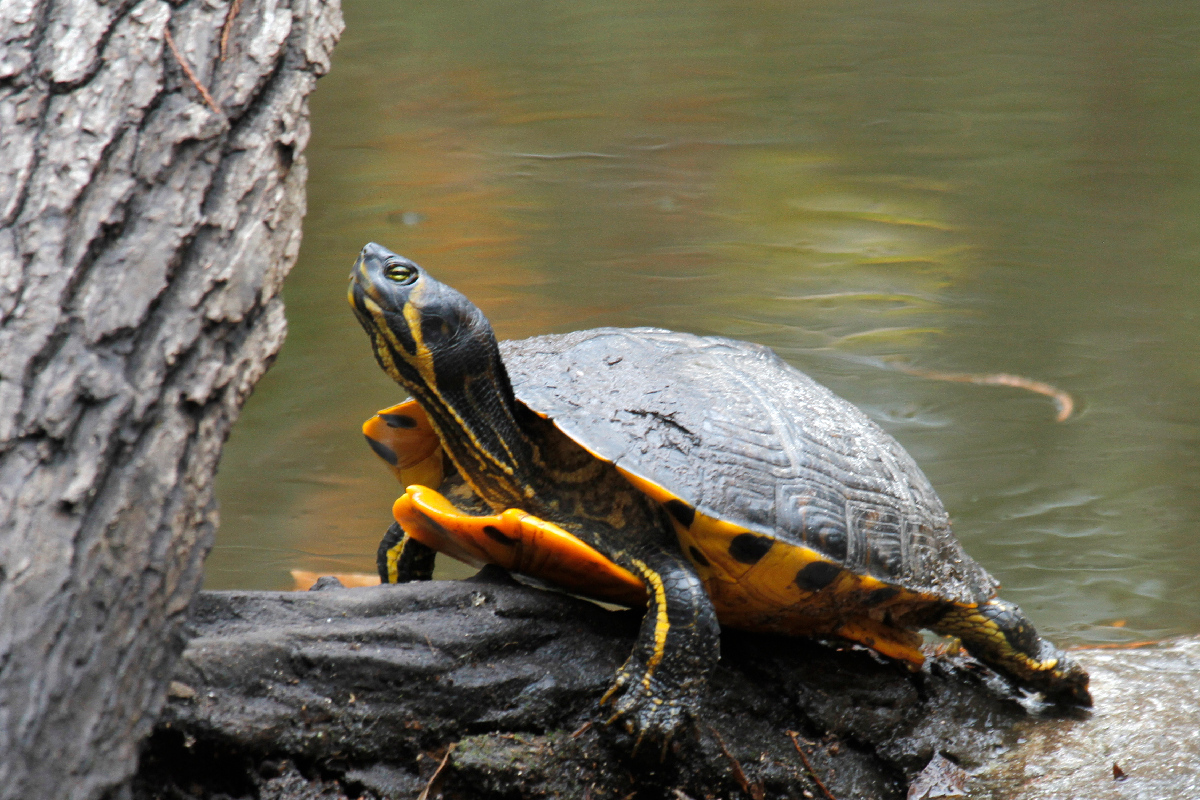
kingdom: Animalia
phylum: Chordata
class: Testudines
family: Emydidae
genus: Trachemys
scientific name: Trachemys scripta
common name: Slider
